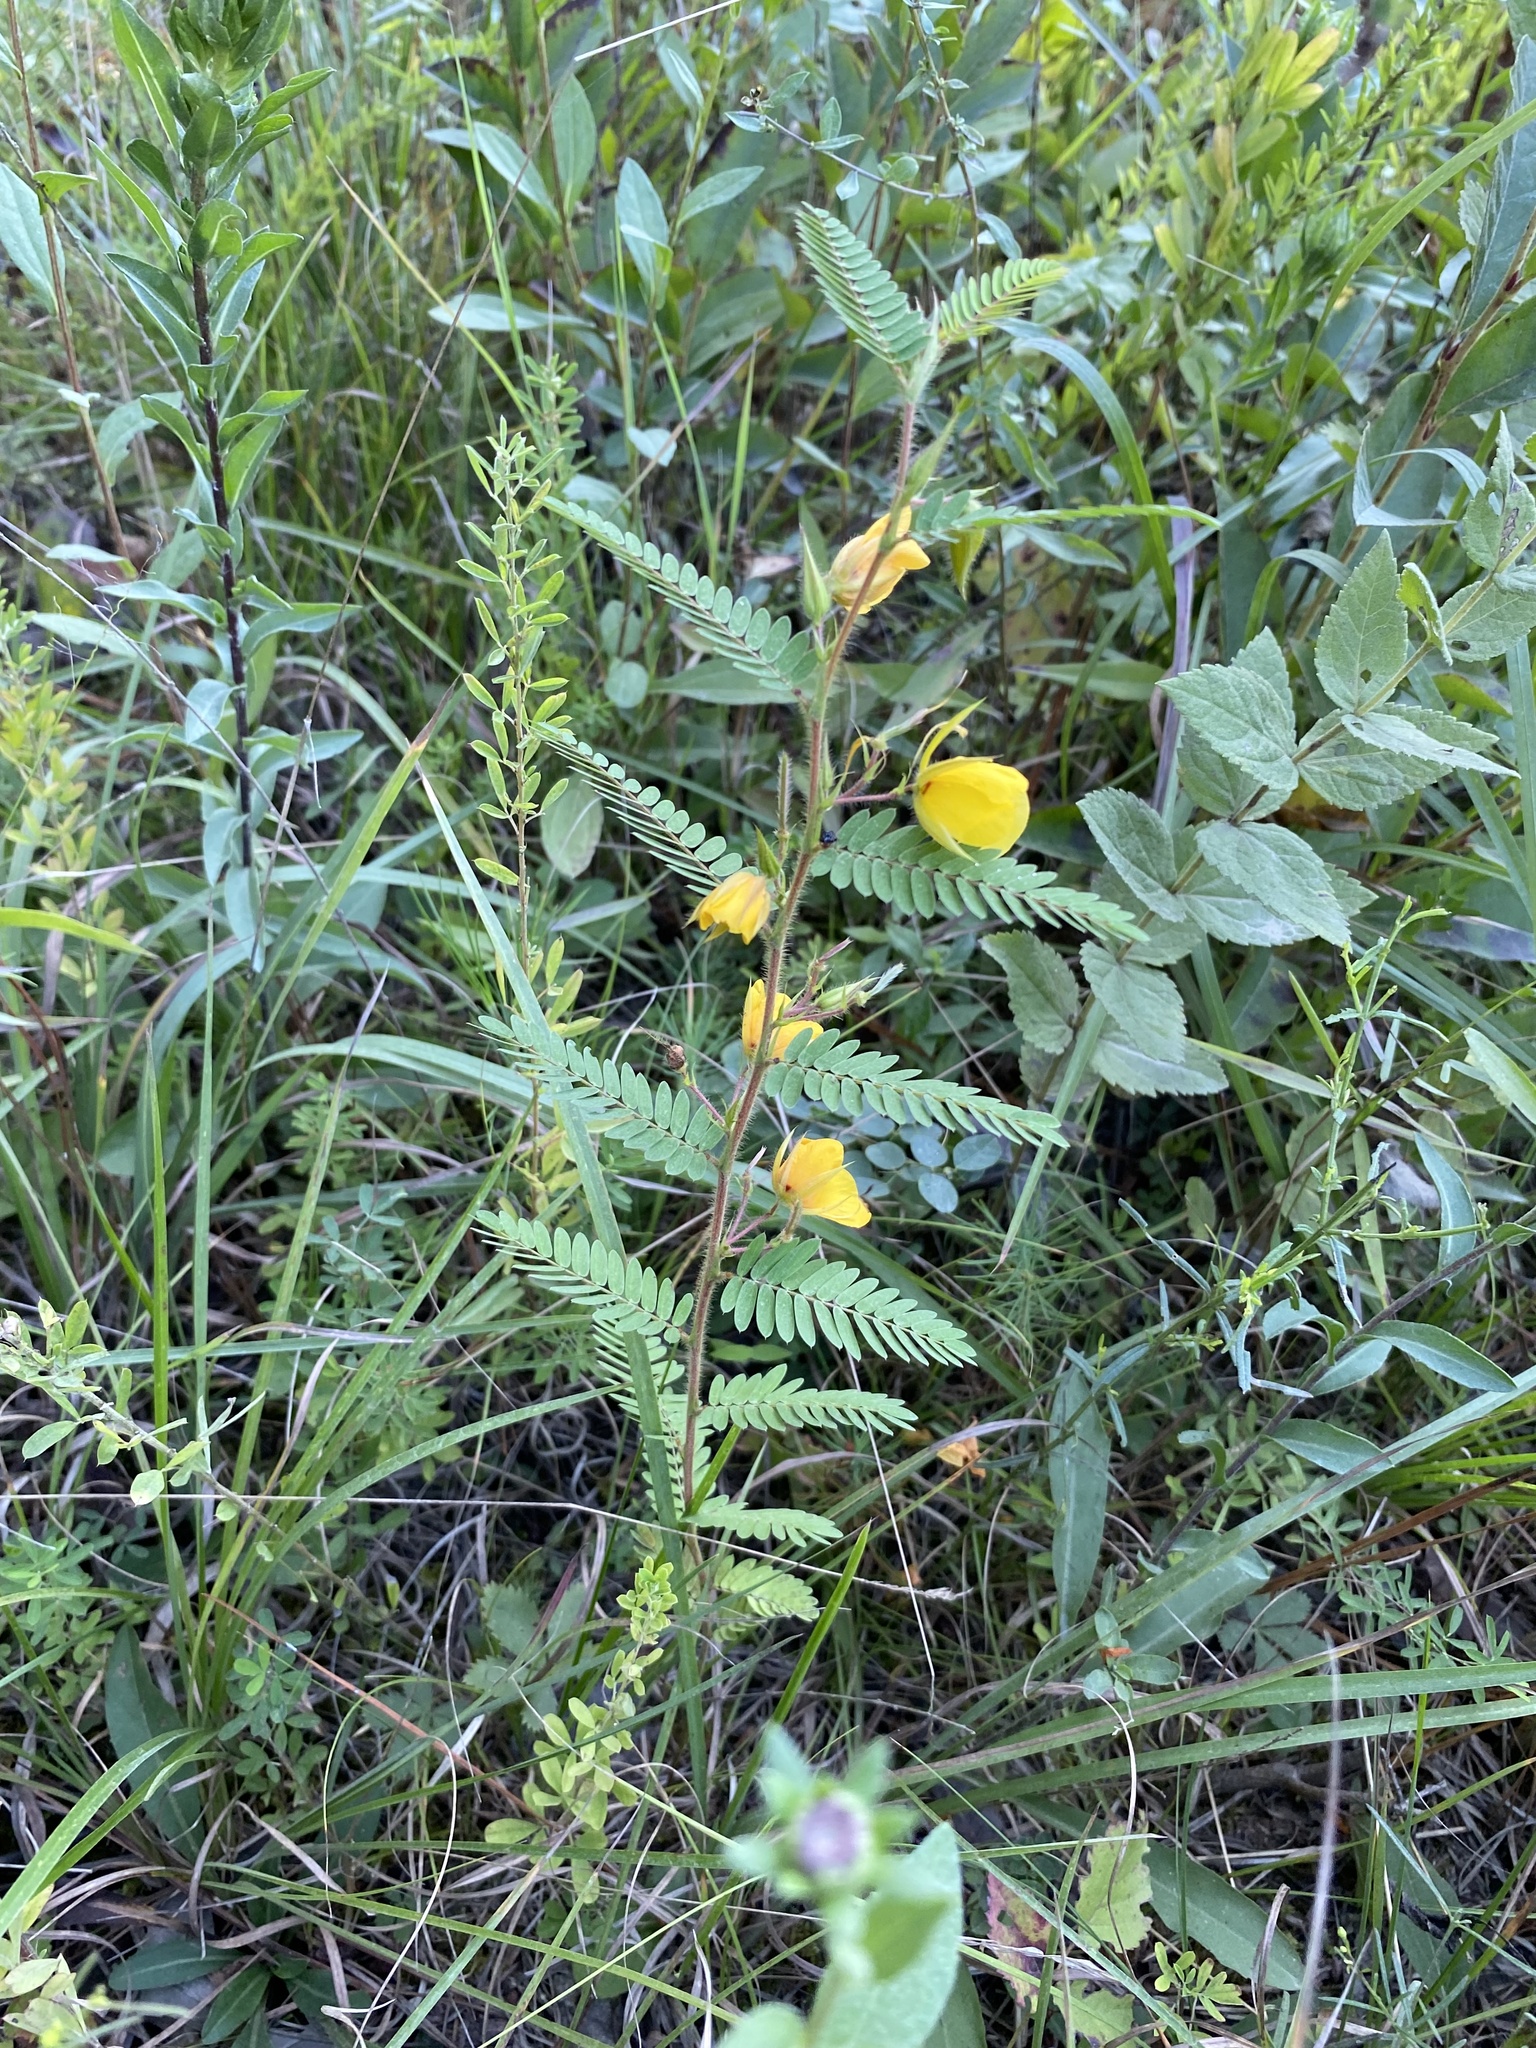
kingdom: Plantae
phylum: Tracheophyta
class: Magnoliopsida
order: Fabales
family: Fabaceae
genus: Chamaecrista
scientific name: Chamaecrista fasciculata
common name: Golden cassia
